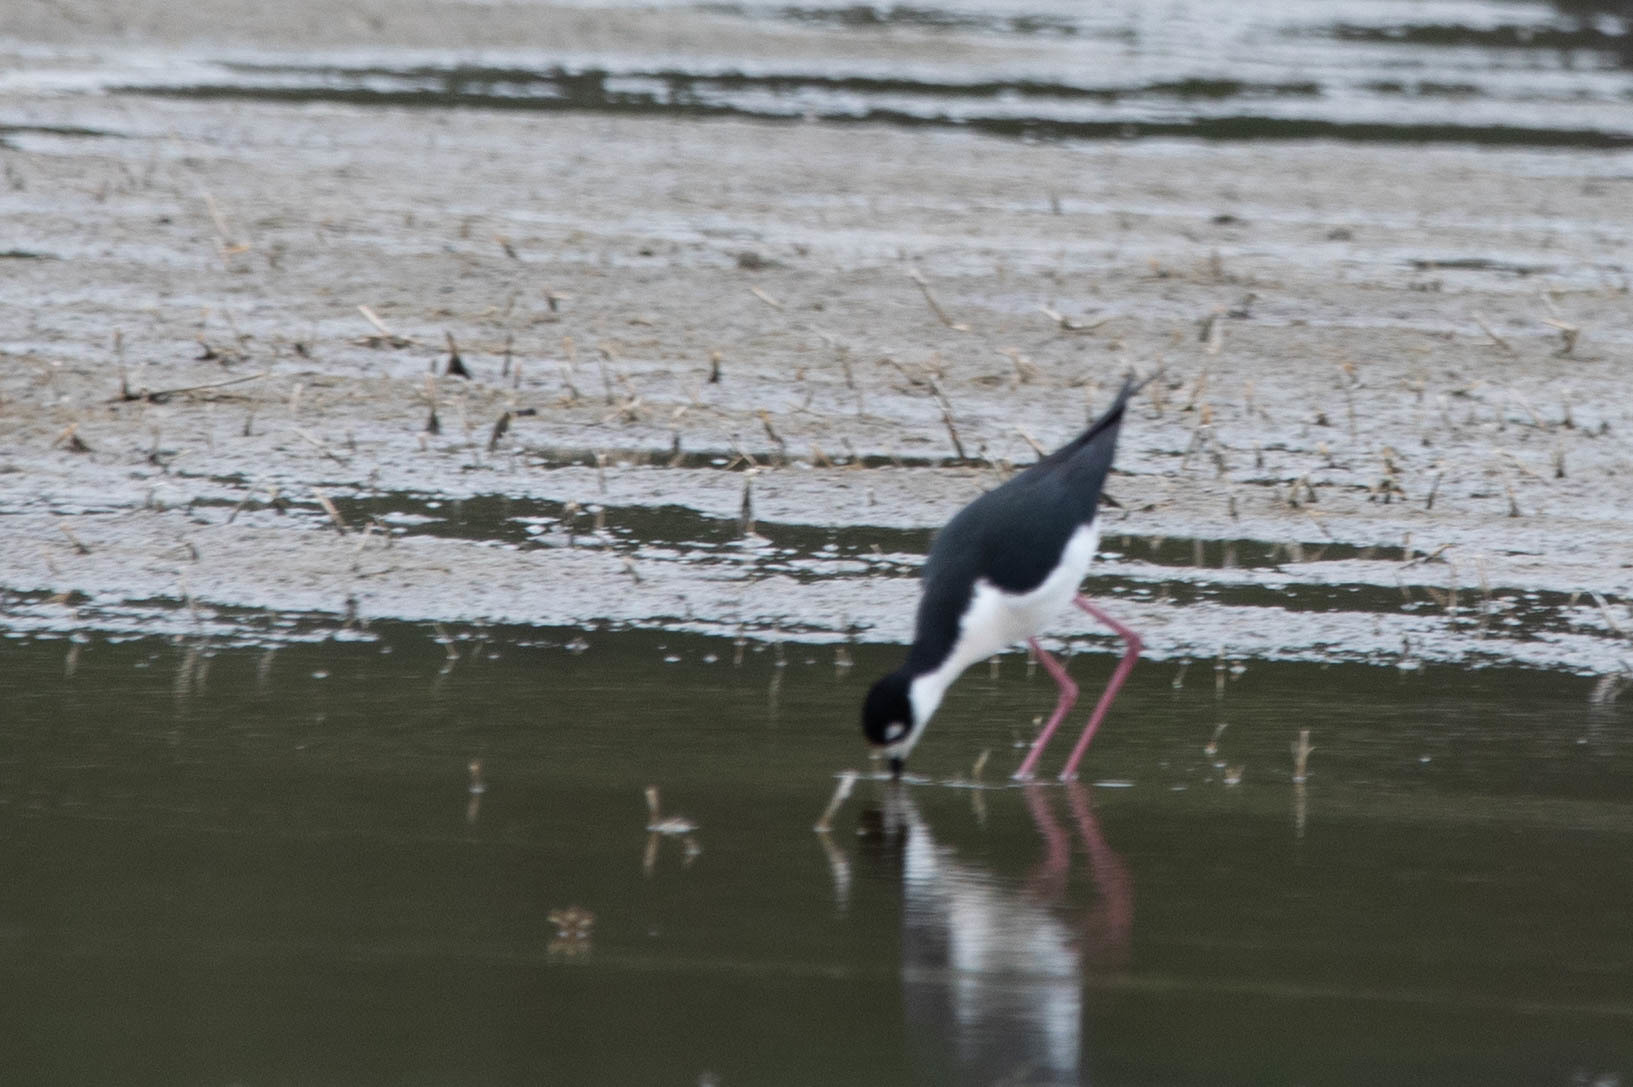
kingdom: Animalia
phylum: Chordata
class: Aves
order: Charadriiformes
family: Recurvirostridae
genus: Himantopus
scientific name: Himantopus mexicanus
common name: Black-necked stilt
